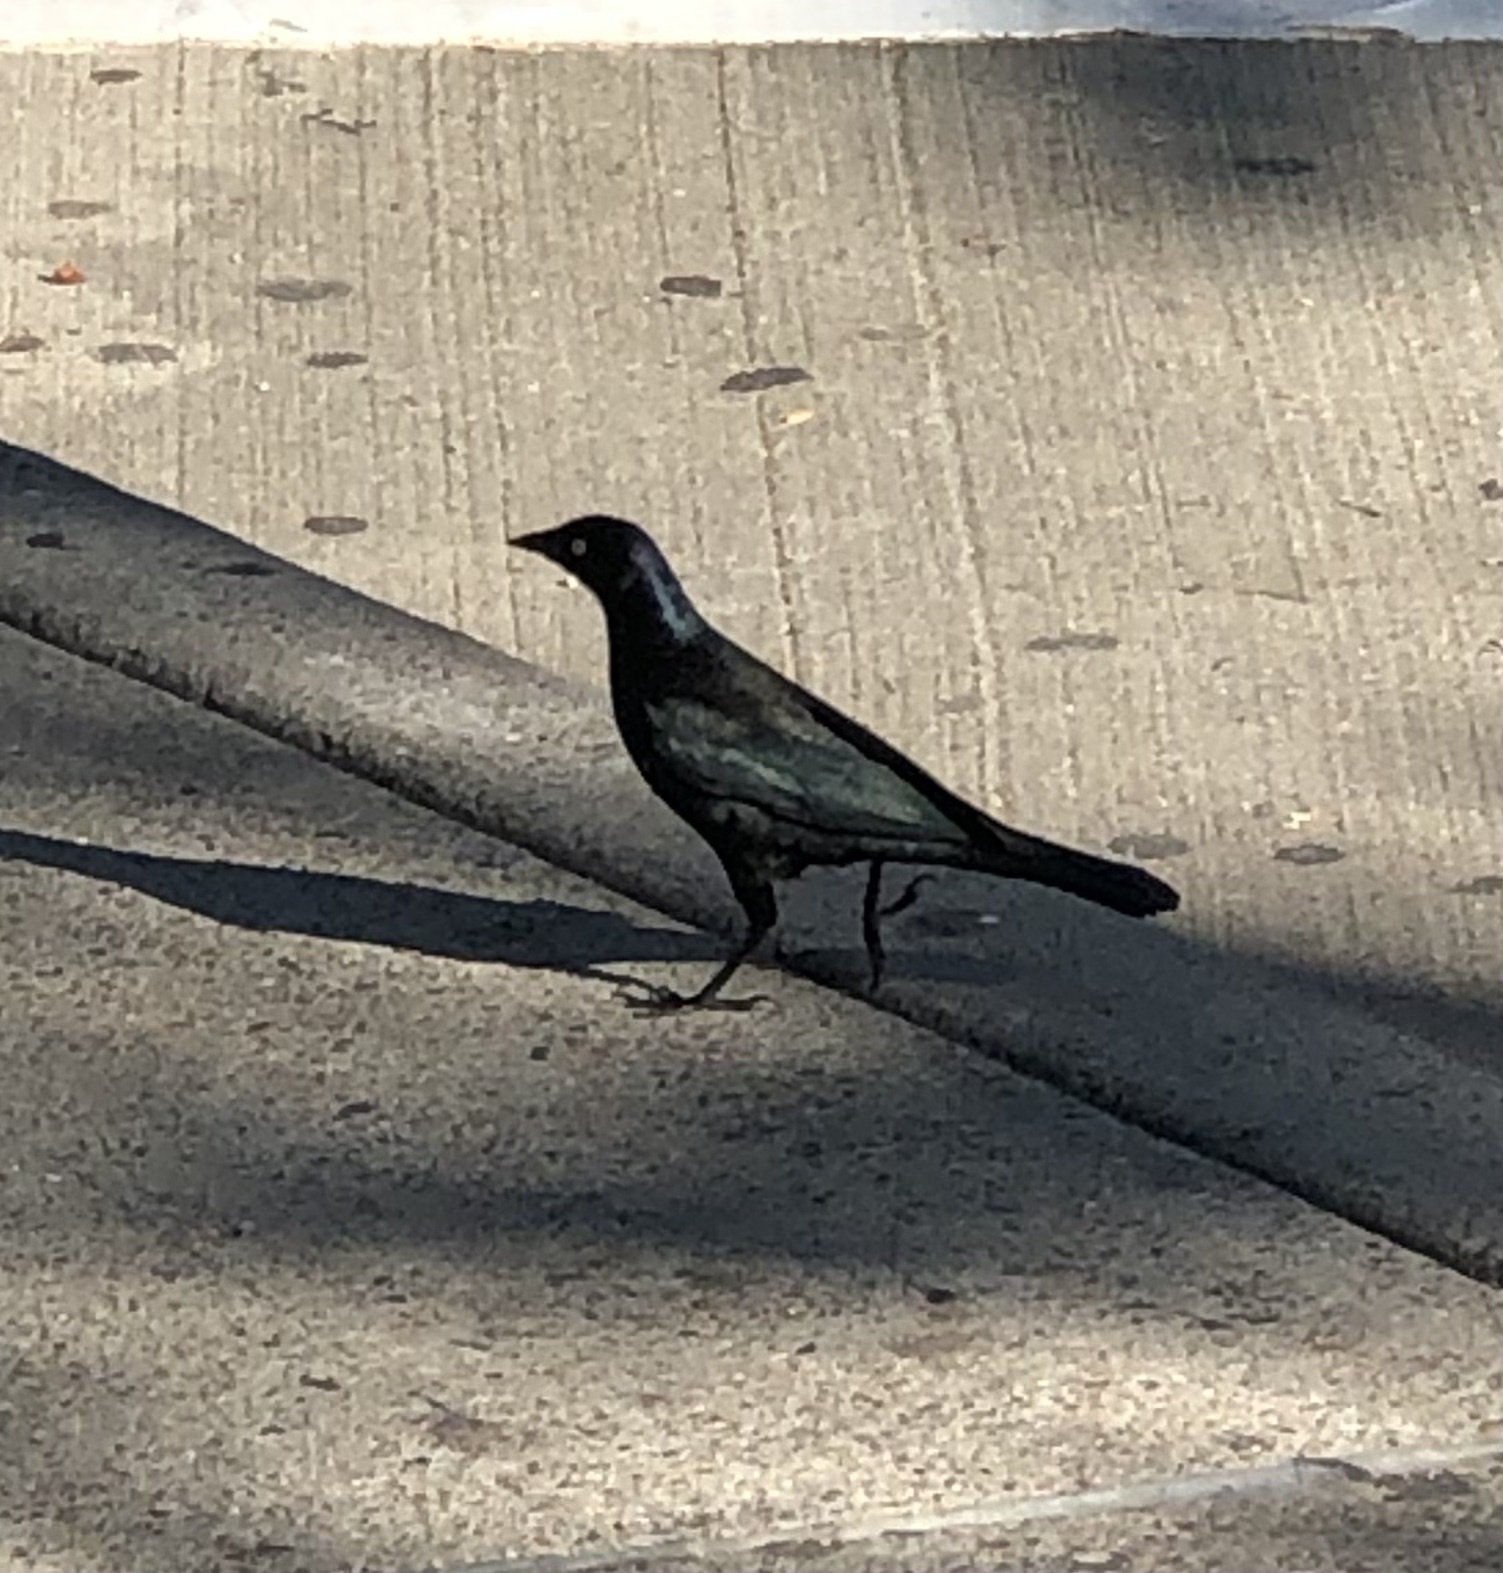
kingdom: Animalia
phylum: Chordata
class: Aves
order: Passeriformes
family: Icteridae
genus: Euphagus
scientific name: Euphagus cyanocephalus
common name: Brewer's blackbird
